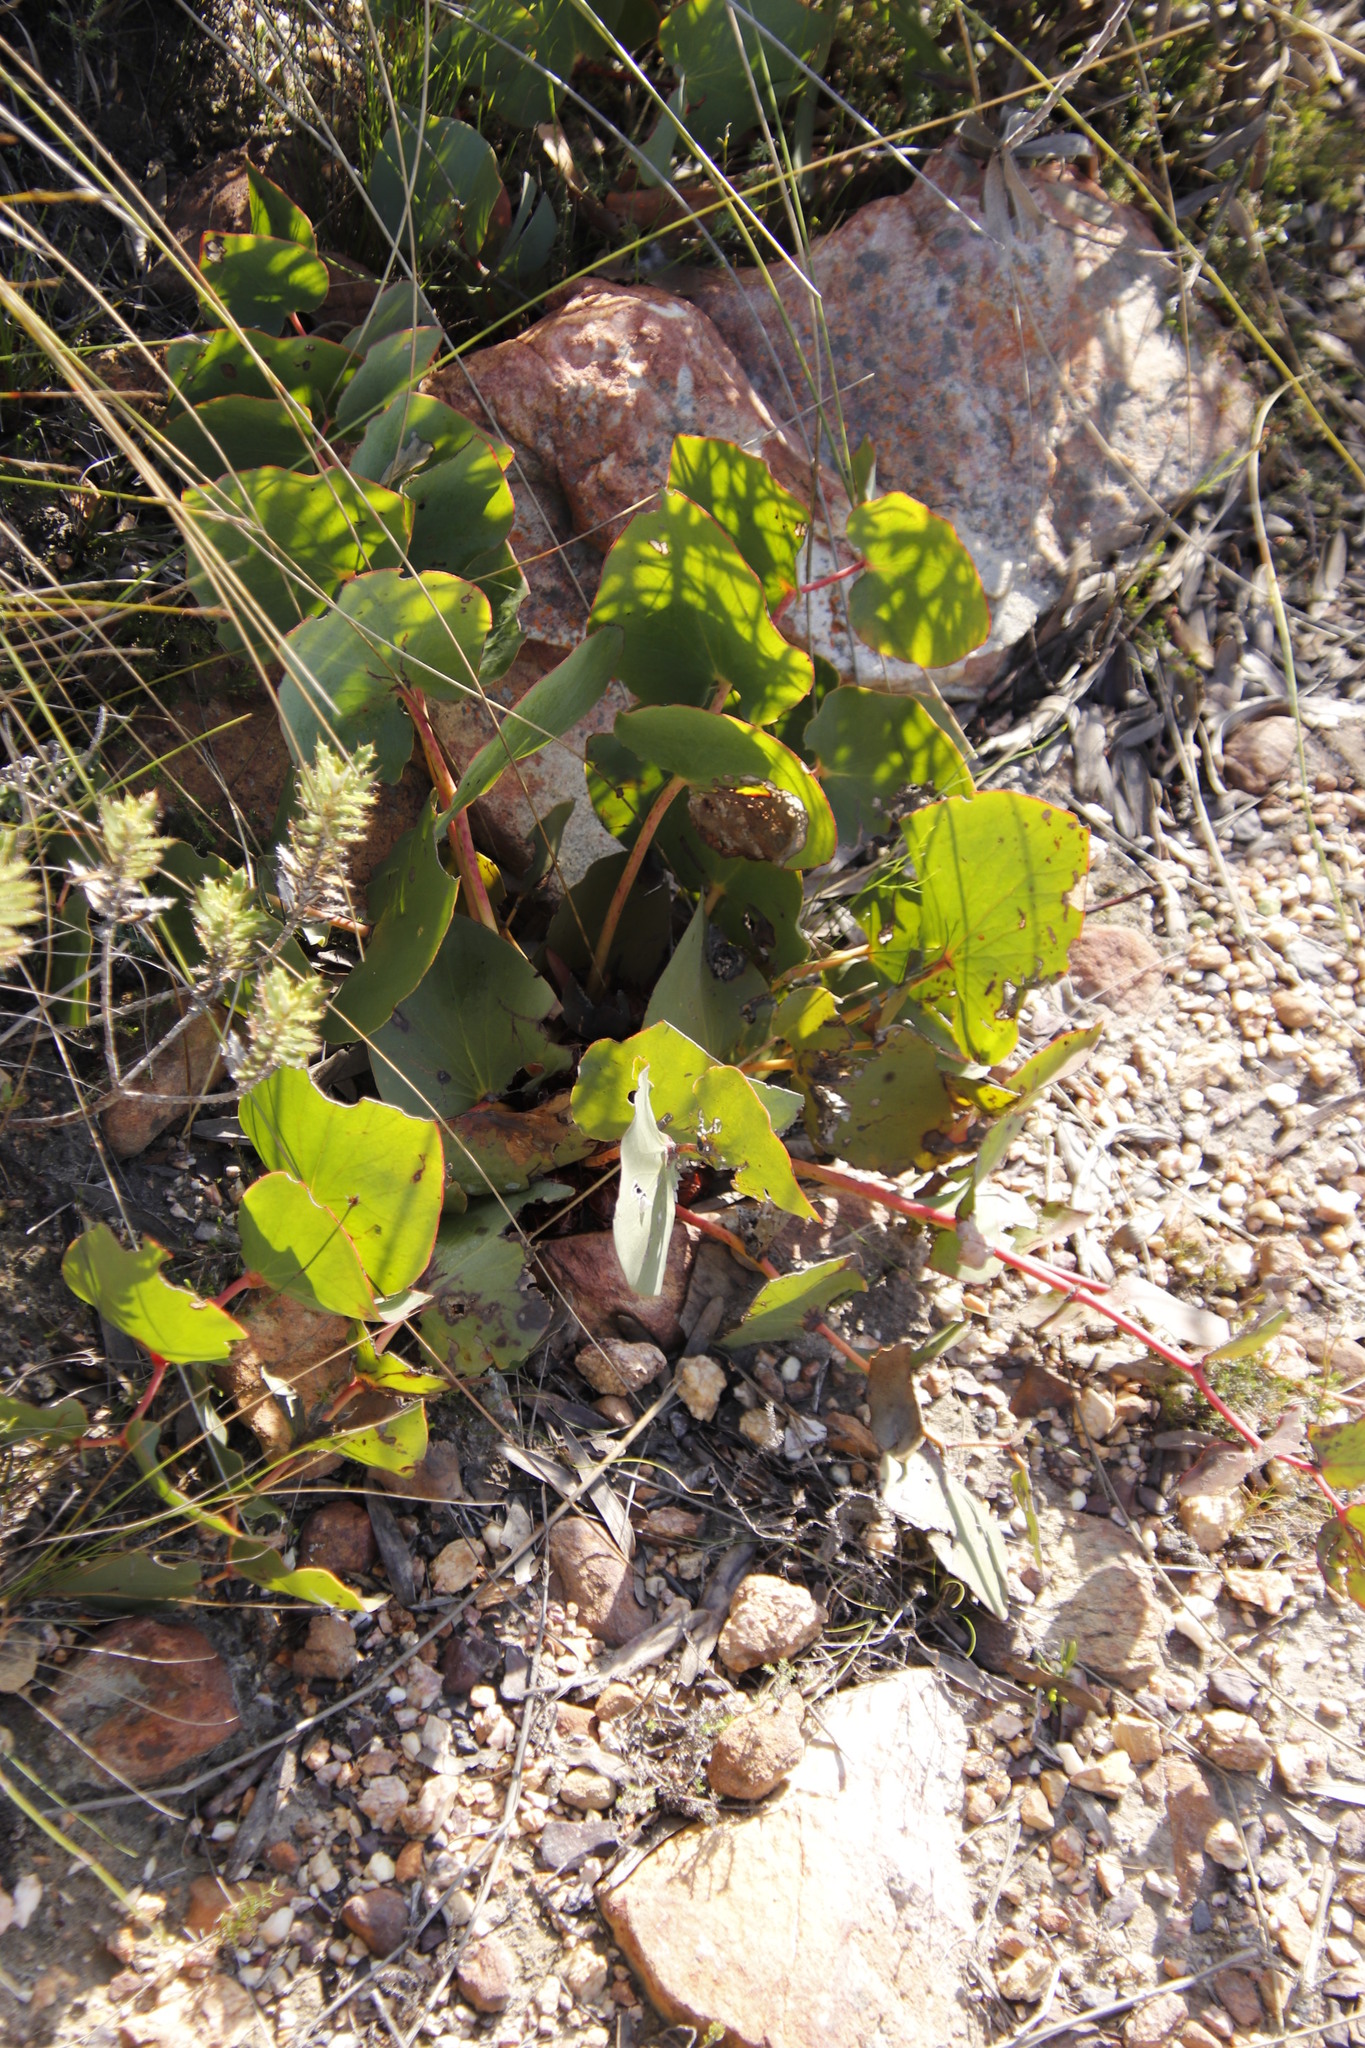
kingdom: Plantae
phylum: Tracheophyta
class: Magnoliopsida
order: Proteales
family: Proteaceae
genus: Protea
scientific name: Protea cordata
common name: Heart-leaf sugarbush
